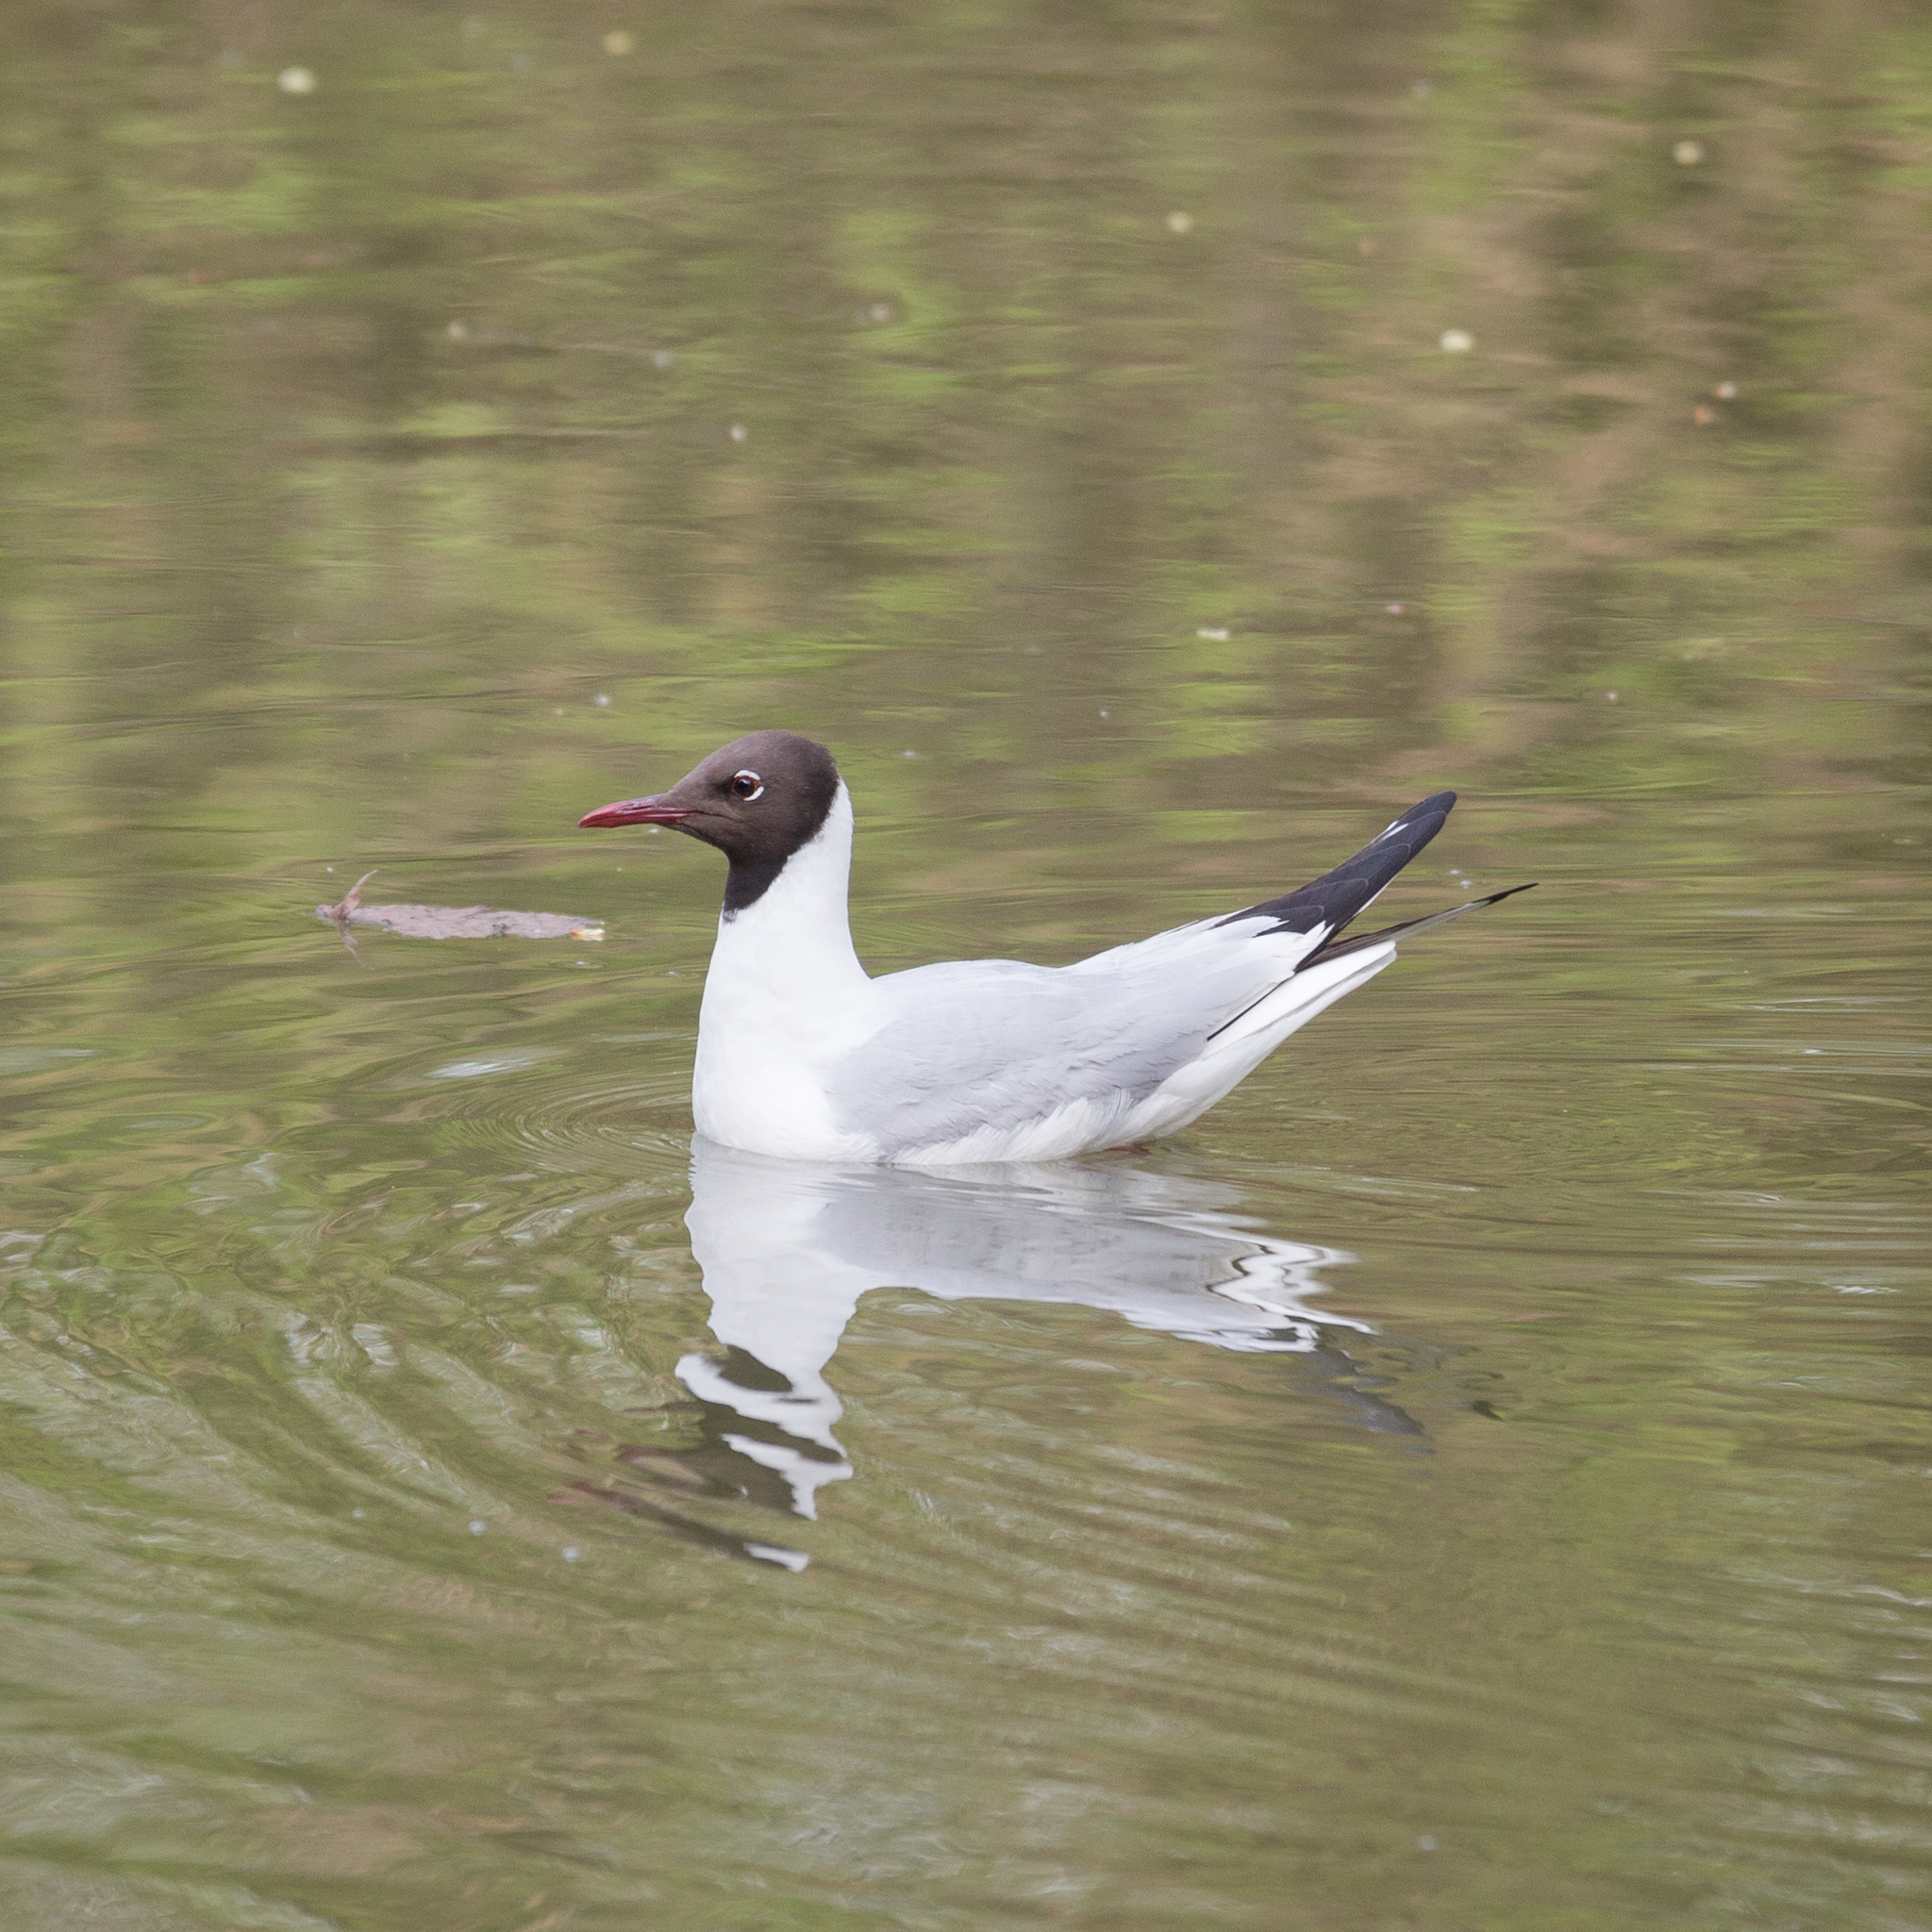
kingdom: Animalia
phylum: Chordata
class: Aves
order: Charadriiformes
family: Laridae
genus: Chroicocephalus
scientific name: Chroicocephalus ridibundus
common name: Black-headed gull
